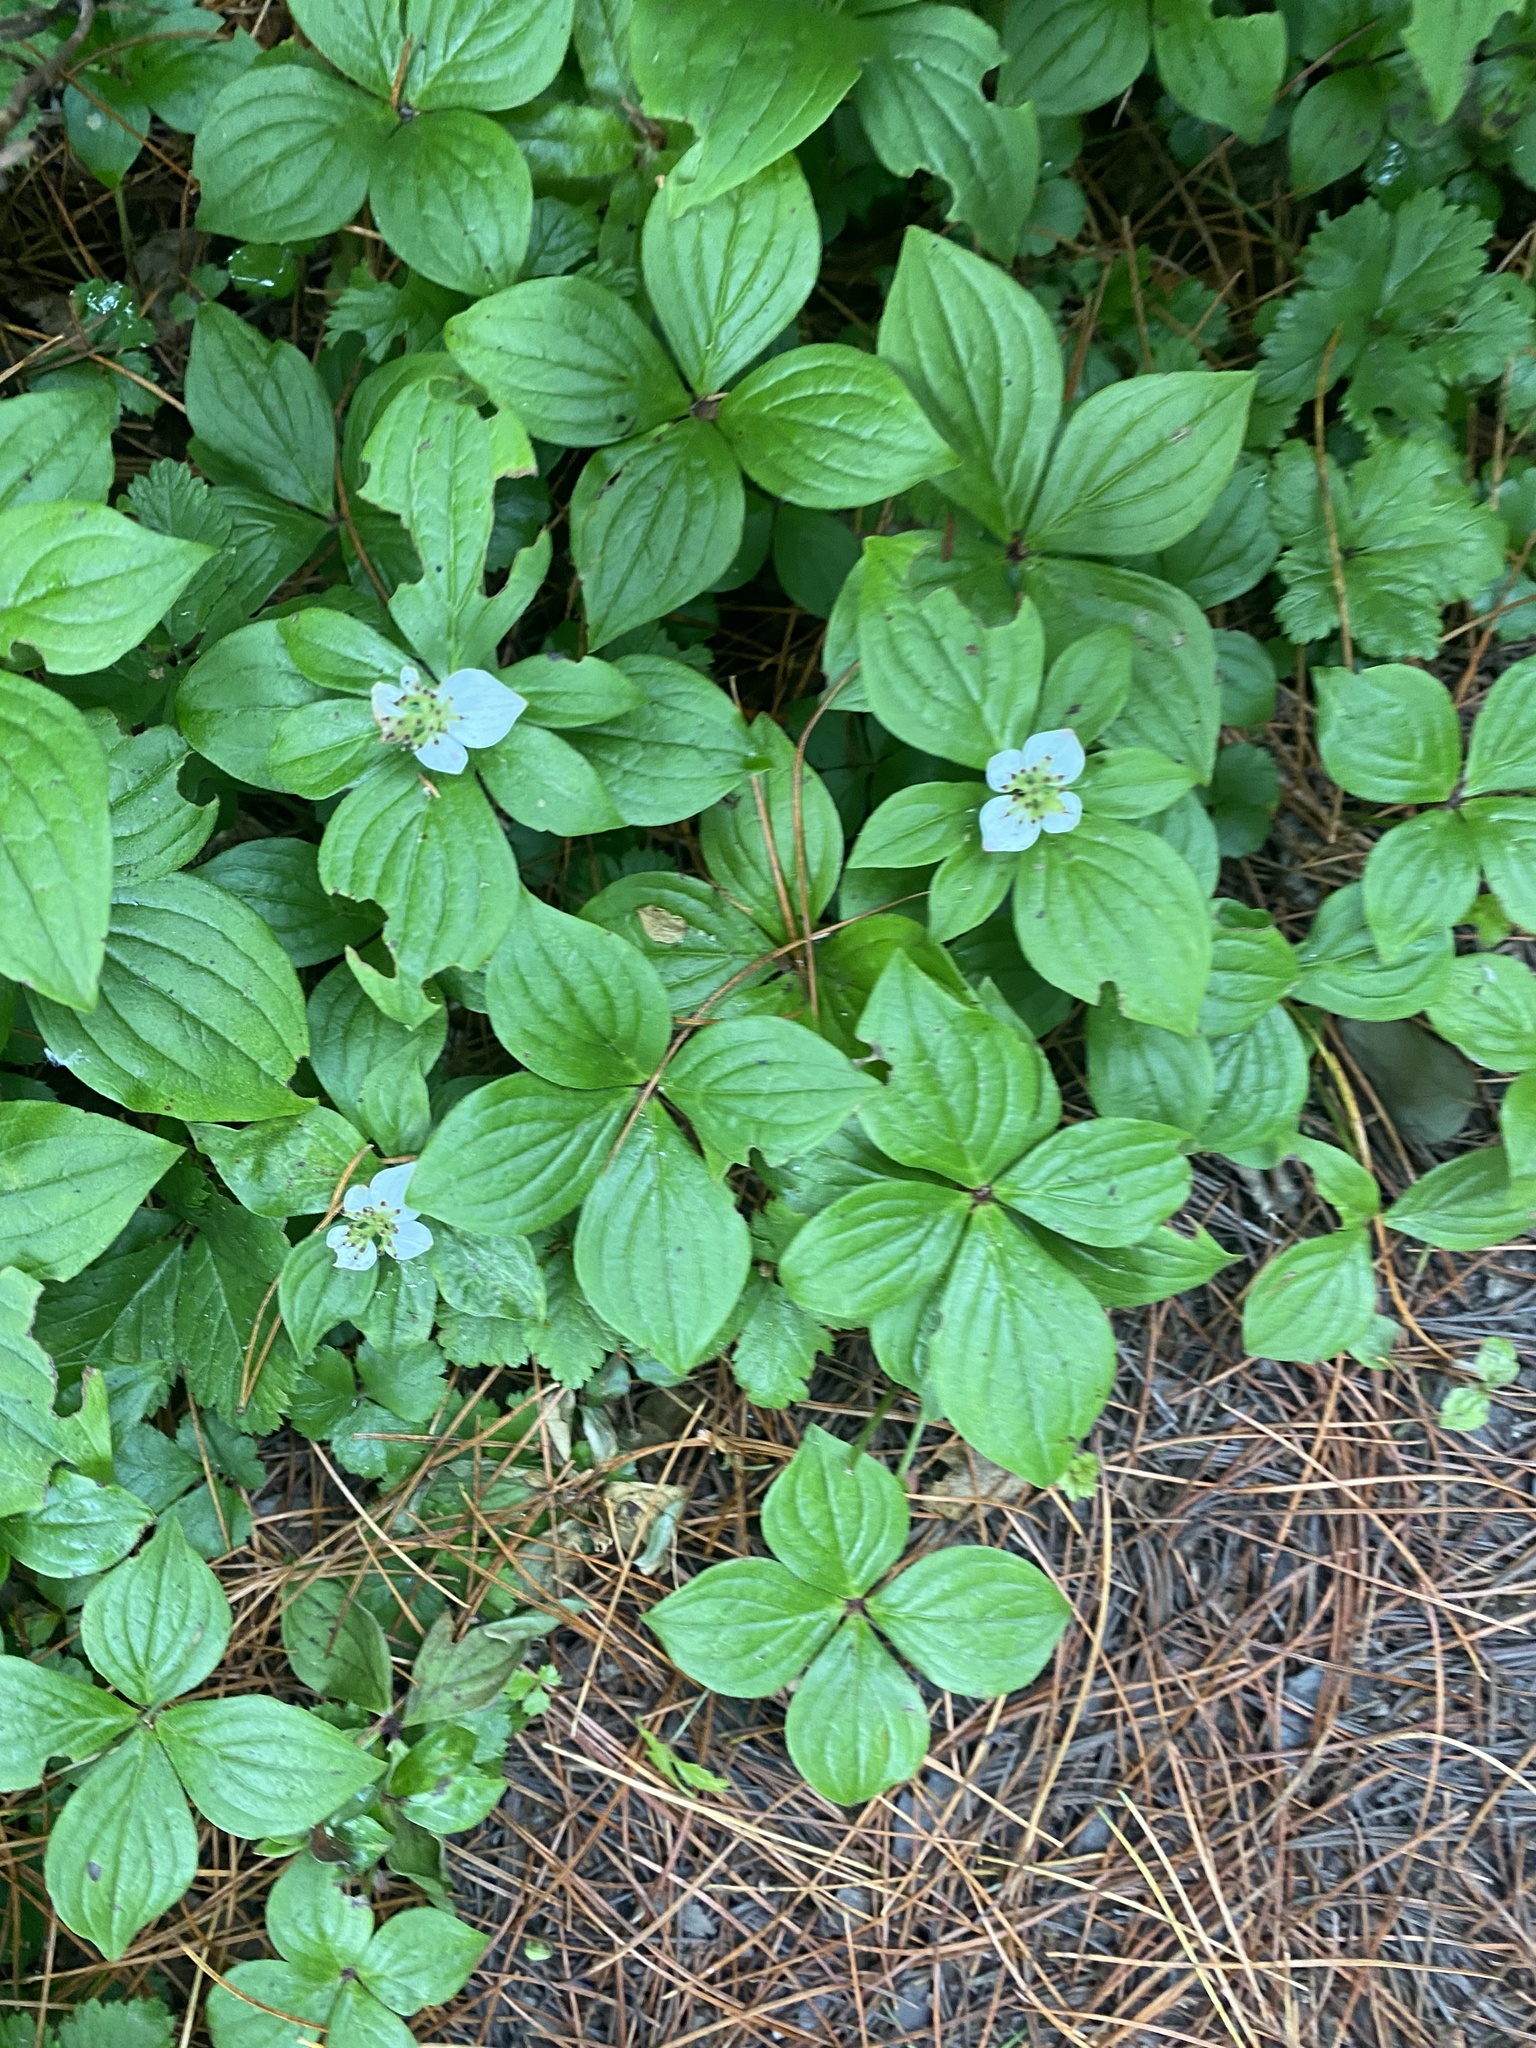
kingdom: Plantae
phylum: Tracheophyta
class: Magnoliopsida
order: Cornales
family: Cornaceae
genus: Cornus
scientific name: Cornus canadensis
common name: Creeping dogwood
